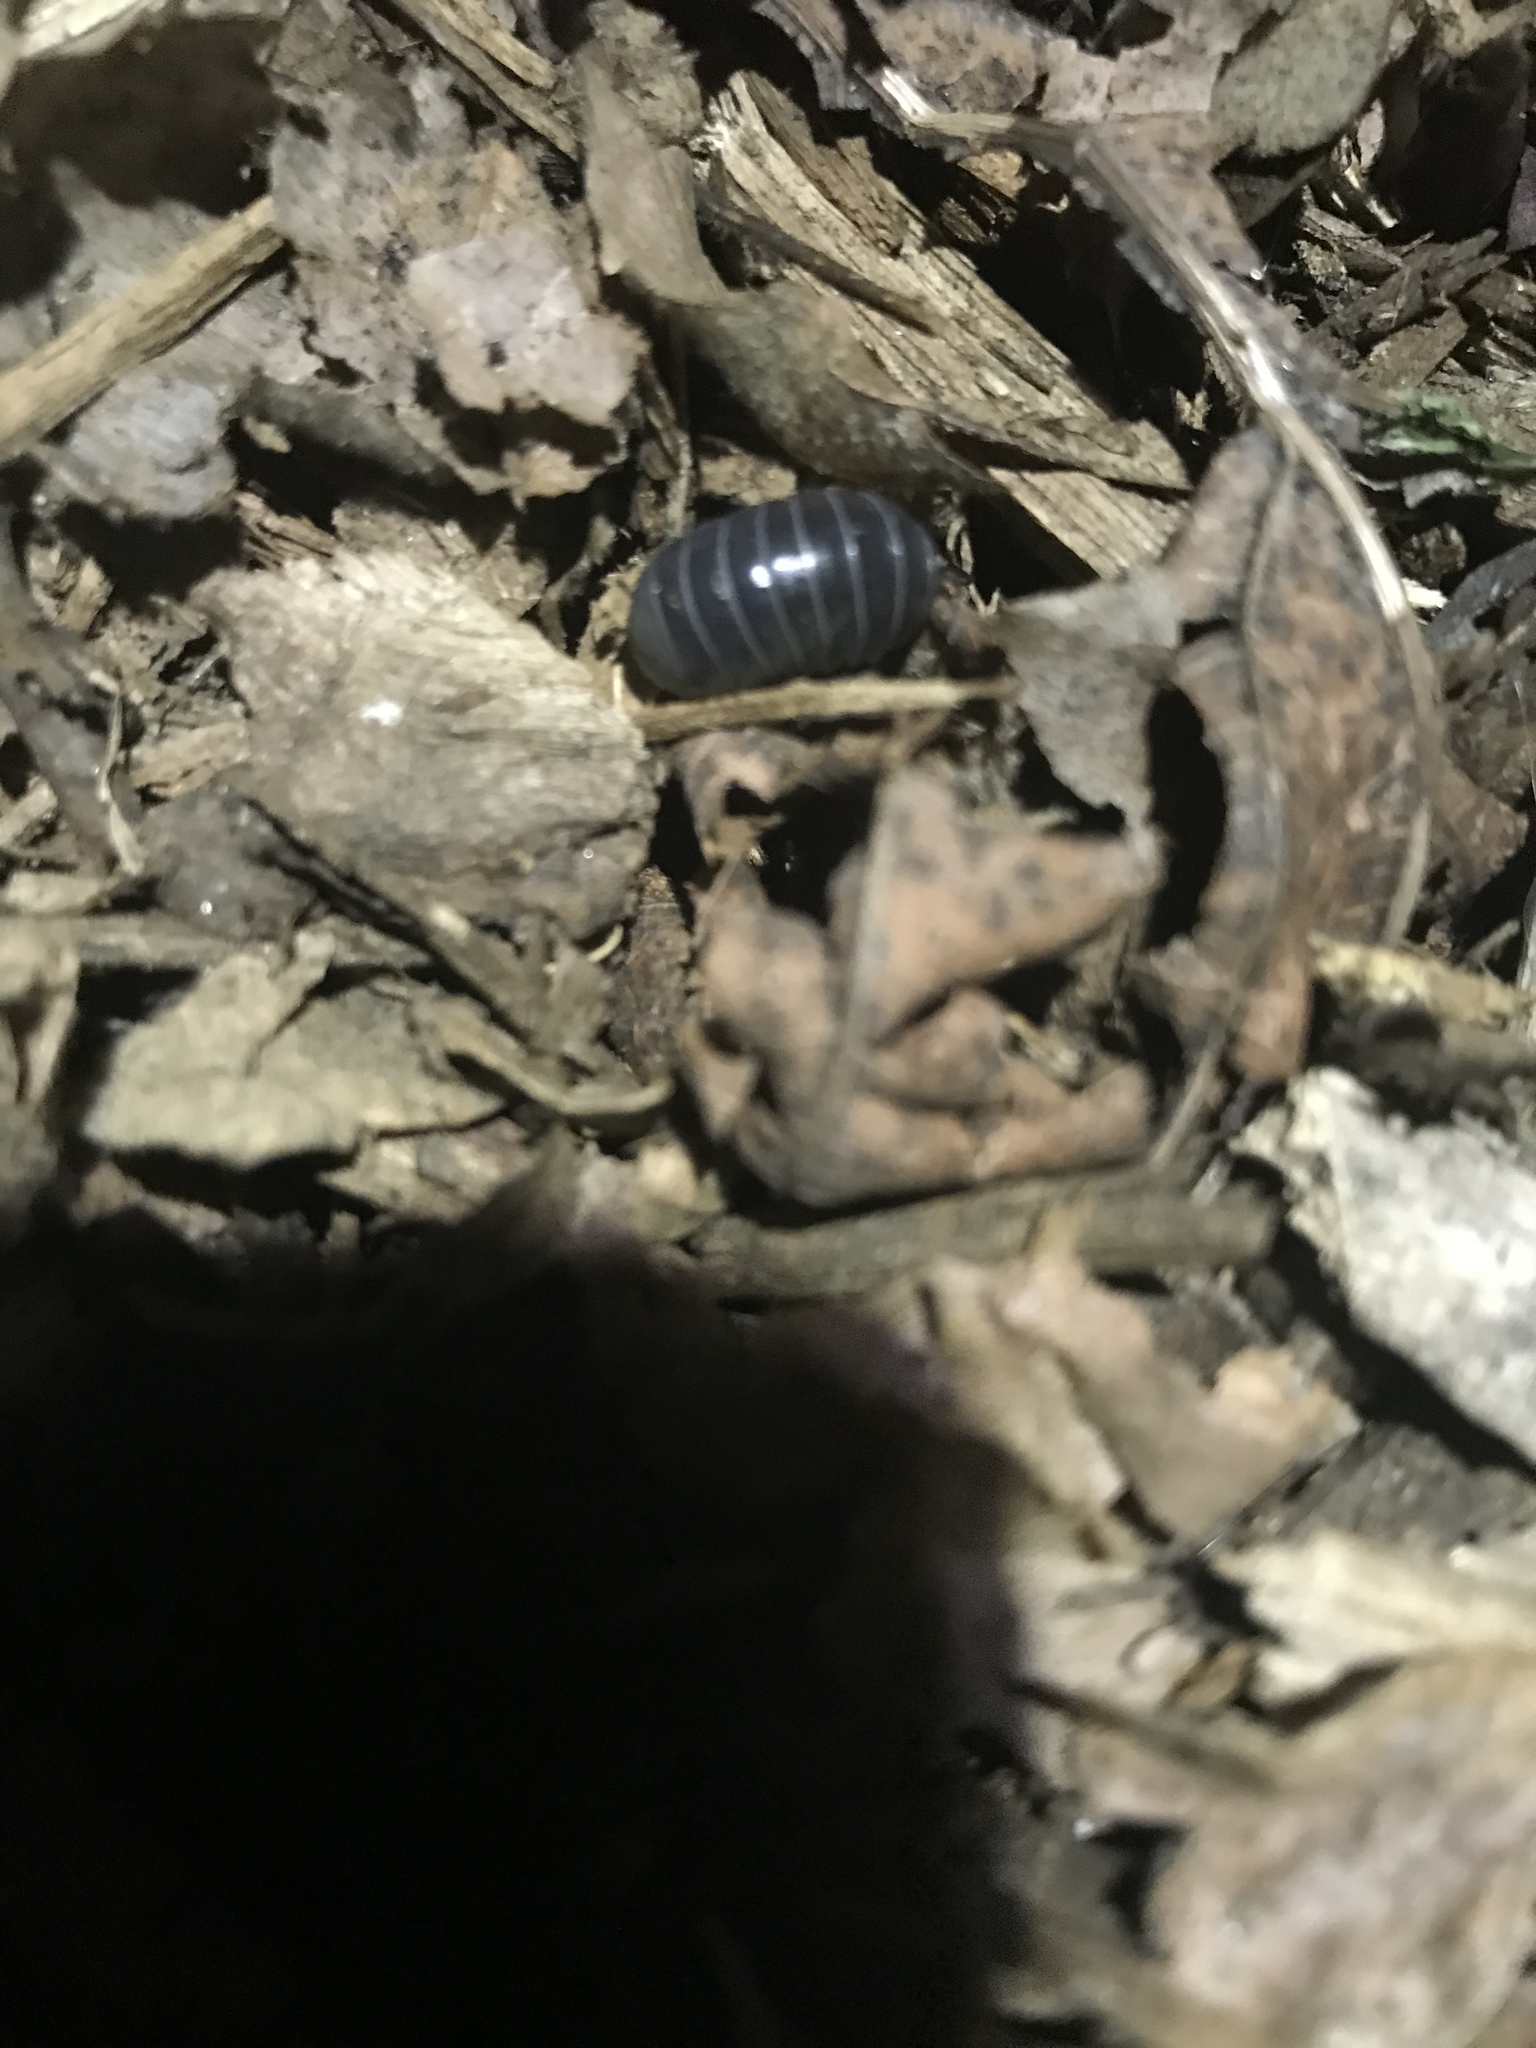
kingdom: Animalia
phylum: Arthropoda
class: Malacostraca
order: Isopoda
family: Armadillidiidae
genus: Armadillidium
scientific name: Armadillidium vulgare
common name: Common pill woodlouse
